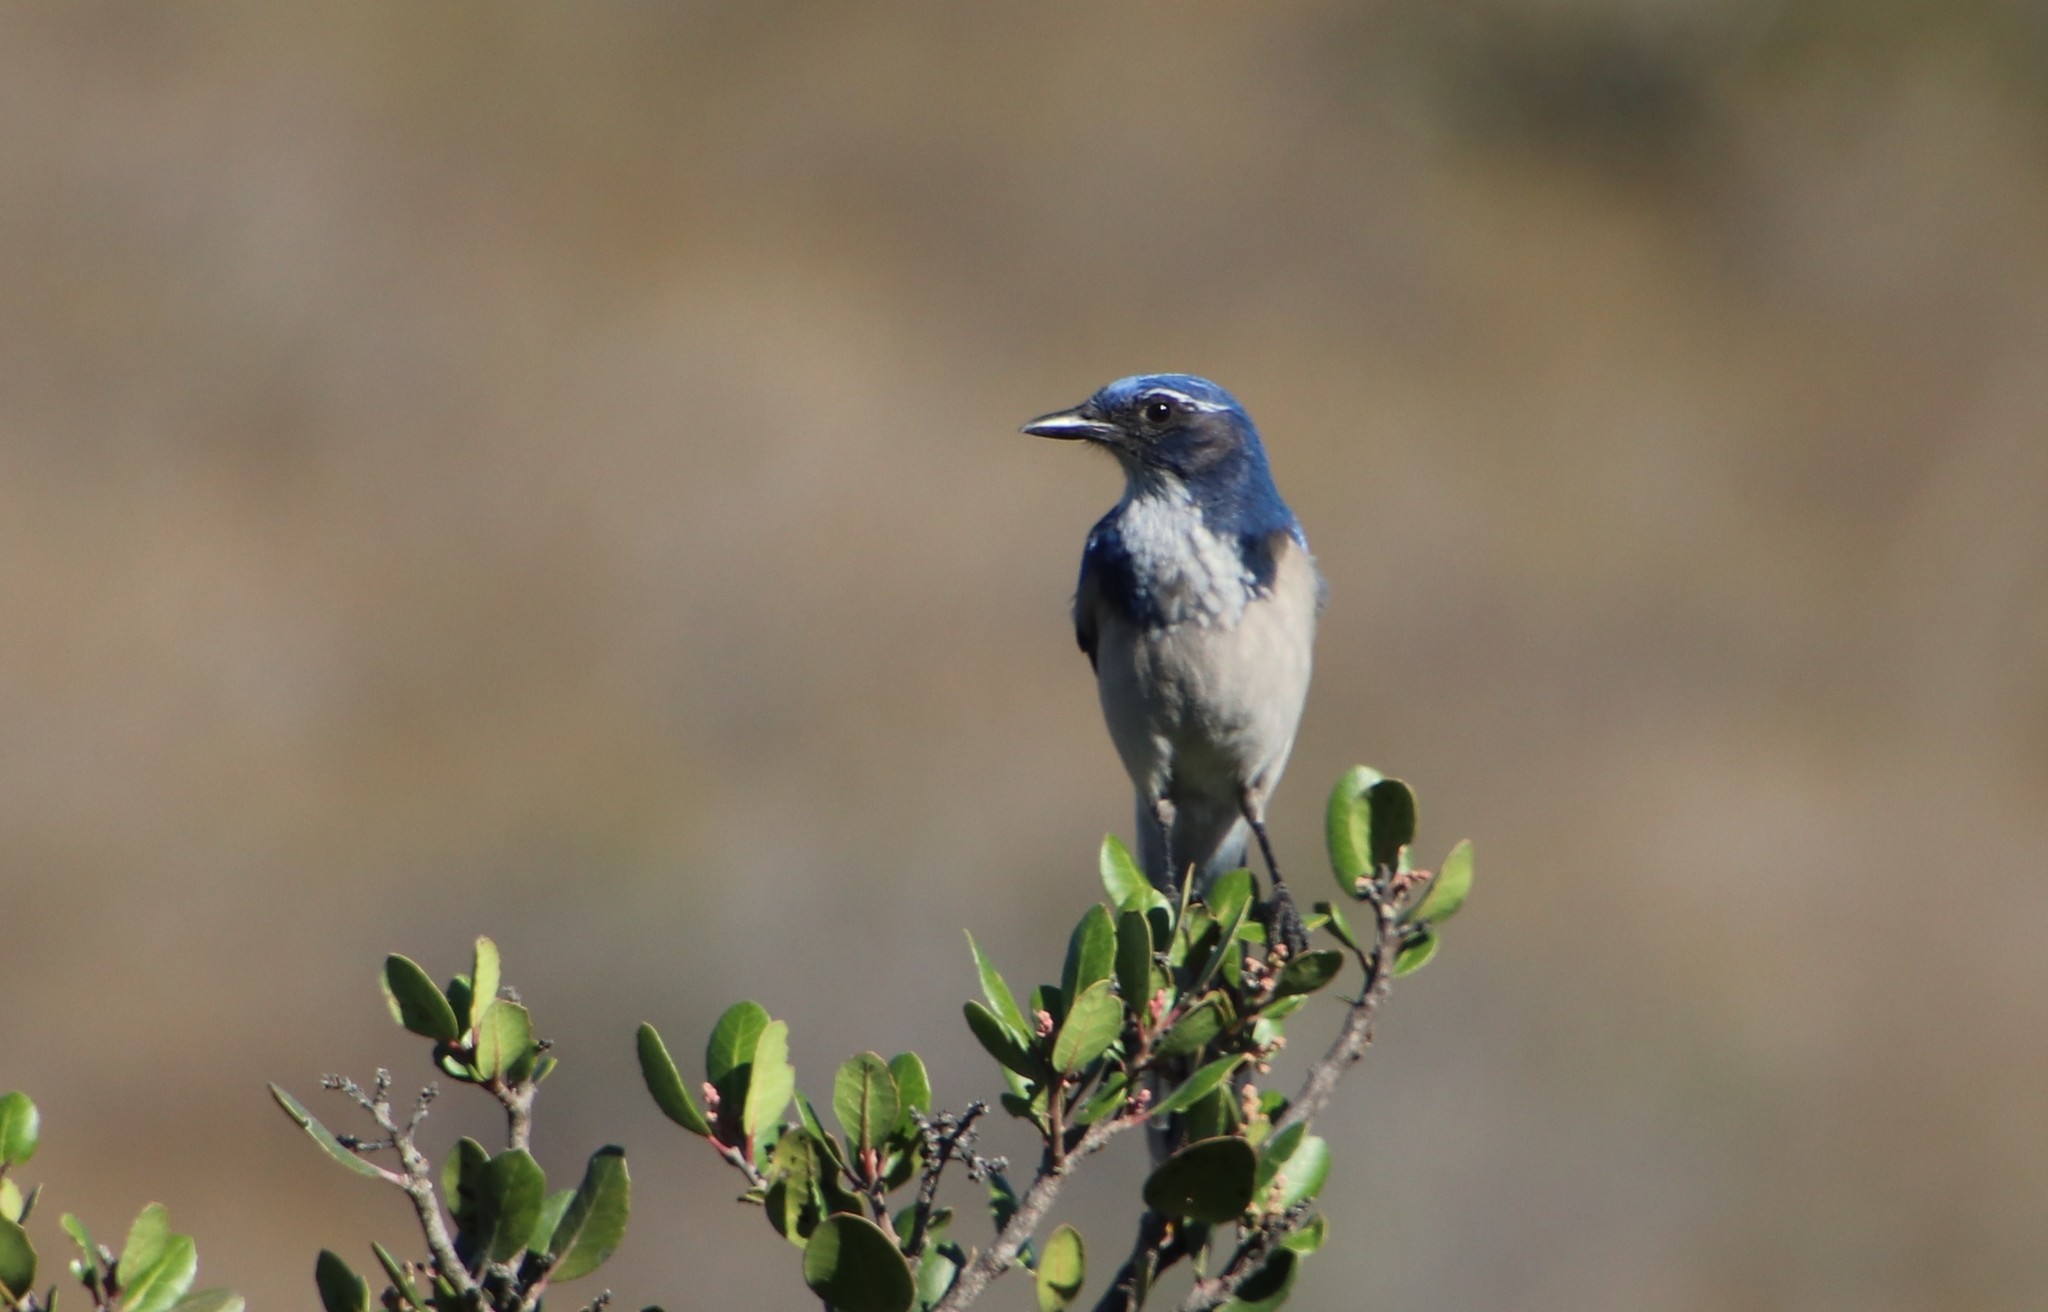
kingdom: Animalia
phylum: Chordata
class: Aves
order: Passeriformes
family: Corvidae
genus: Aphelocoma
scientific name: Aphelocoma californica
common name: California scrub-jay
